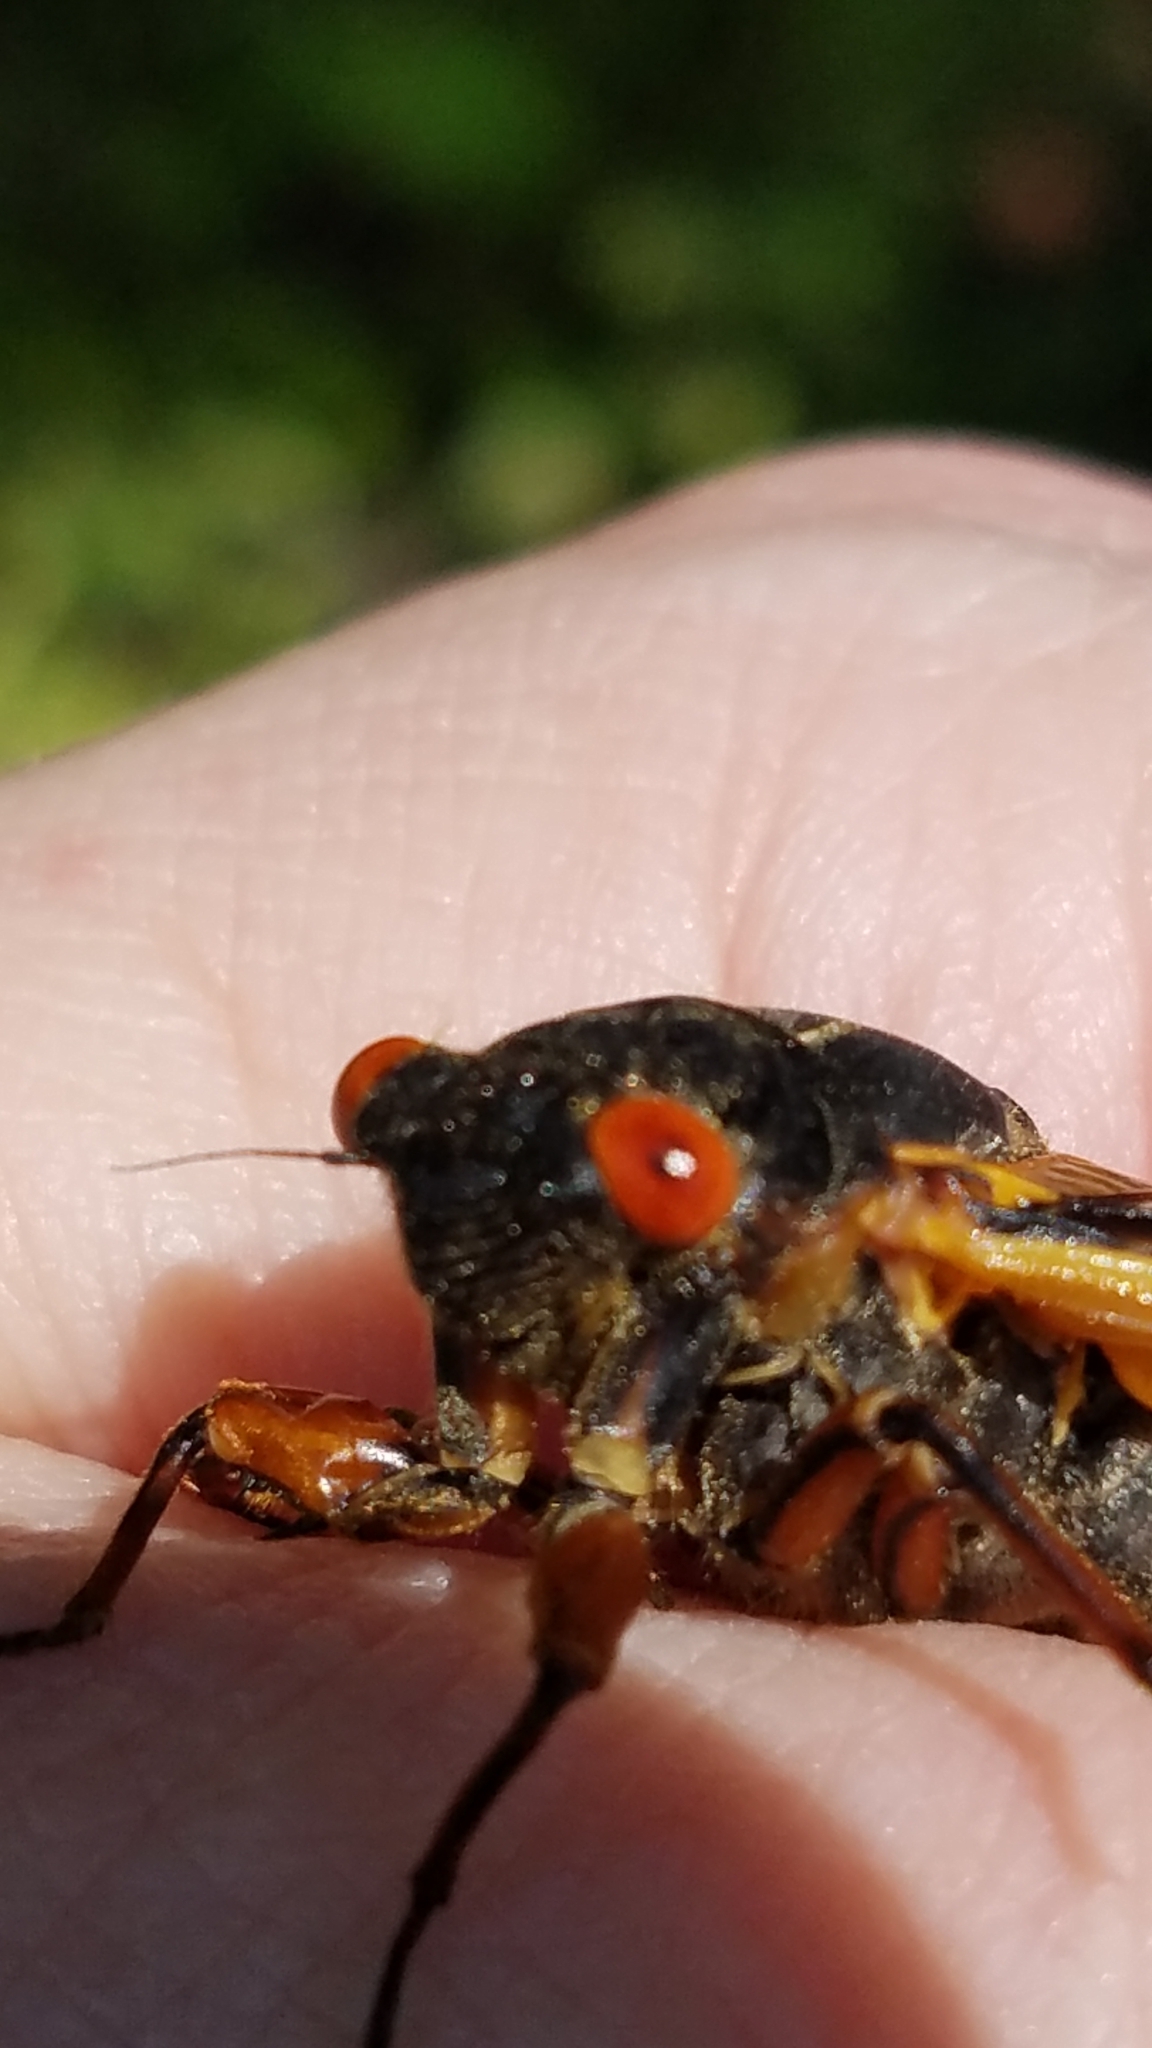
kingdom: Animalia
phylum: Arthropoda
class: Insecta
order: Hemiptera
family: Cicadidae
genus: Magicicada
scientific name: Magicicada septendecim
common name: Periodical cicada
